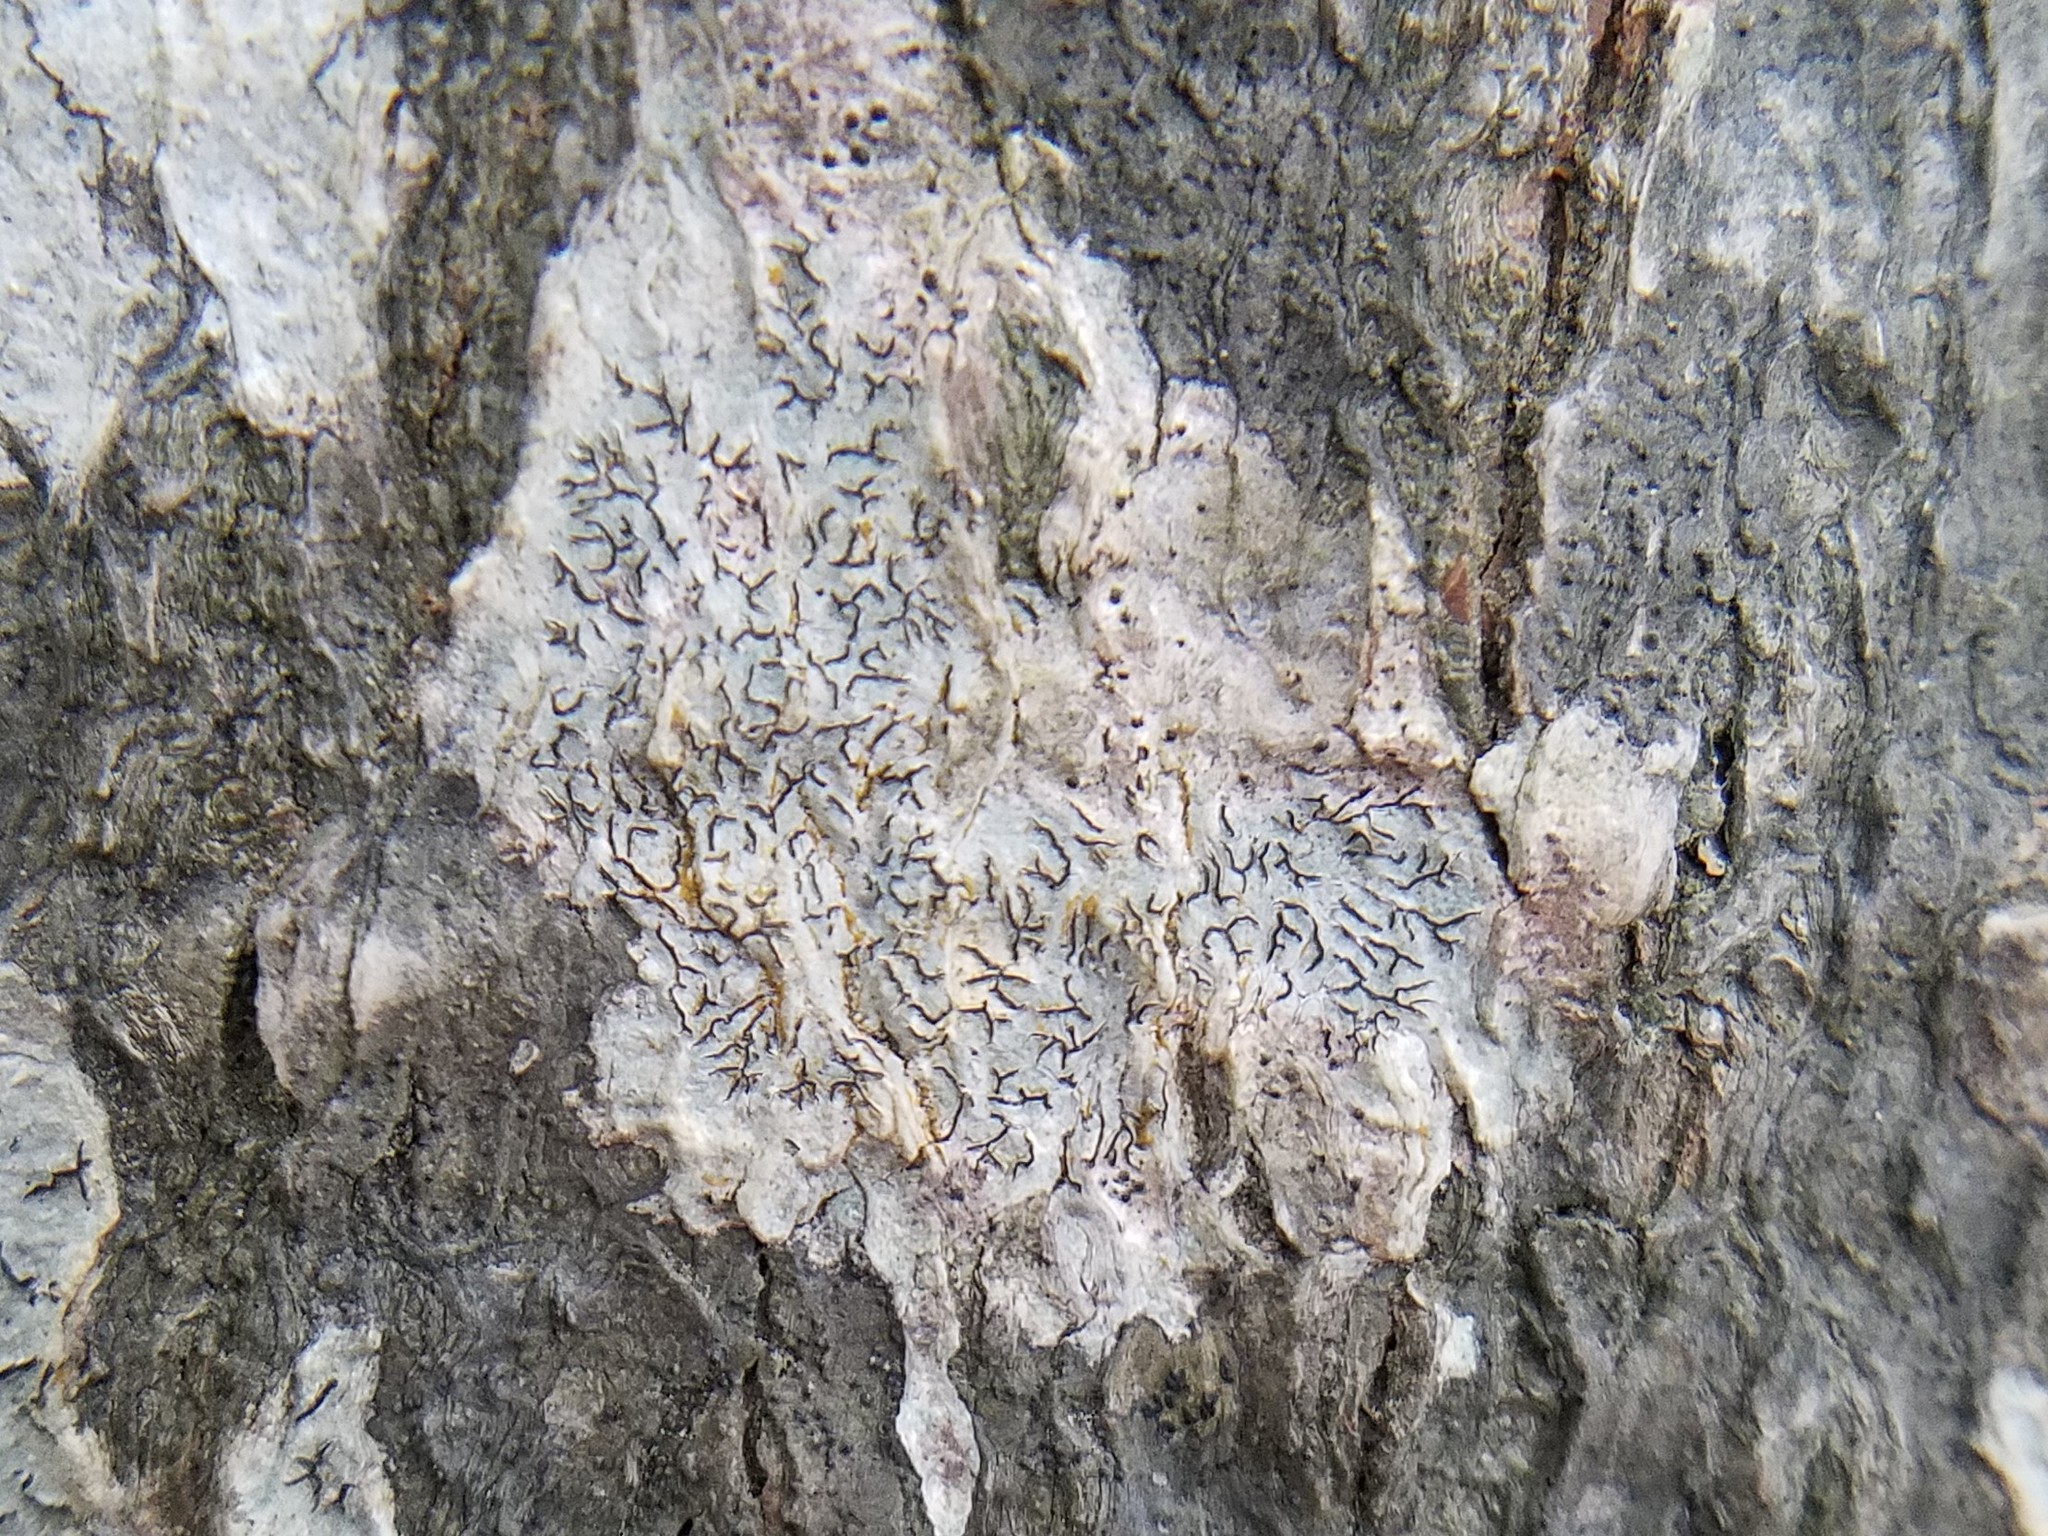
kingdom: Fungi
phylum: Ascomycota
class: Lecanoromycetes
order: Ostropales
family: Graphidaceae
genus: Graphis
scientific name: Graphis scripta
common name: Script lichen
